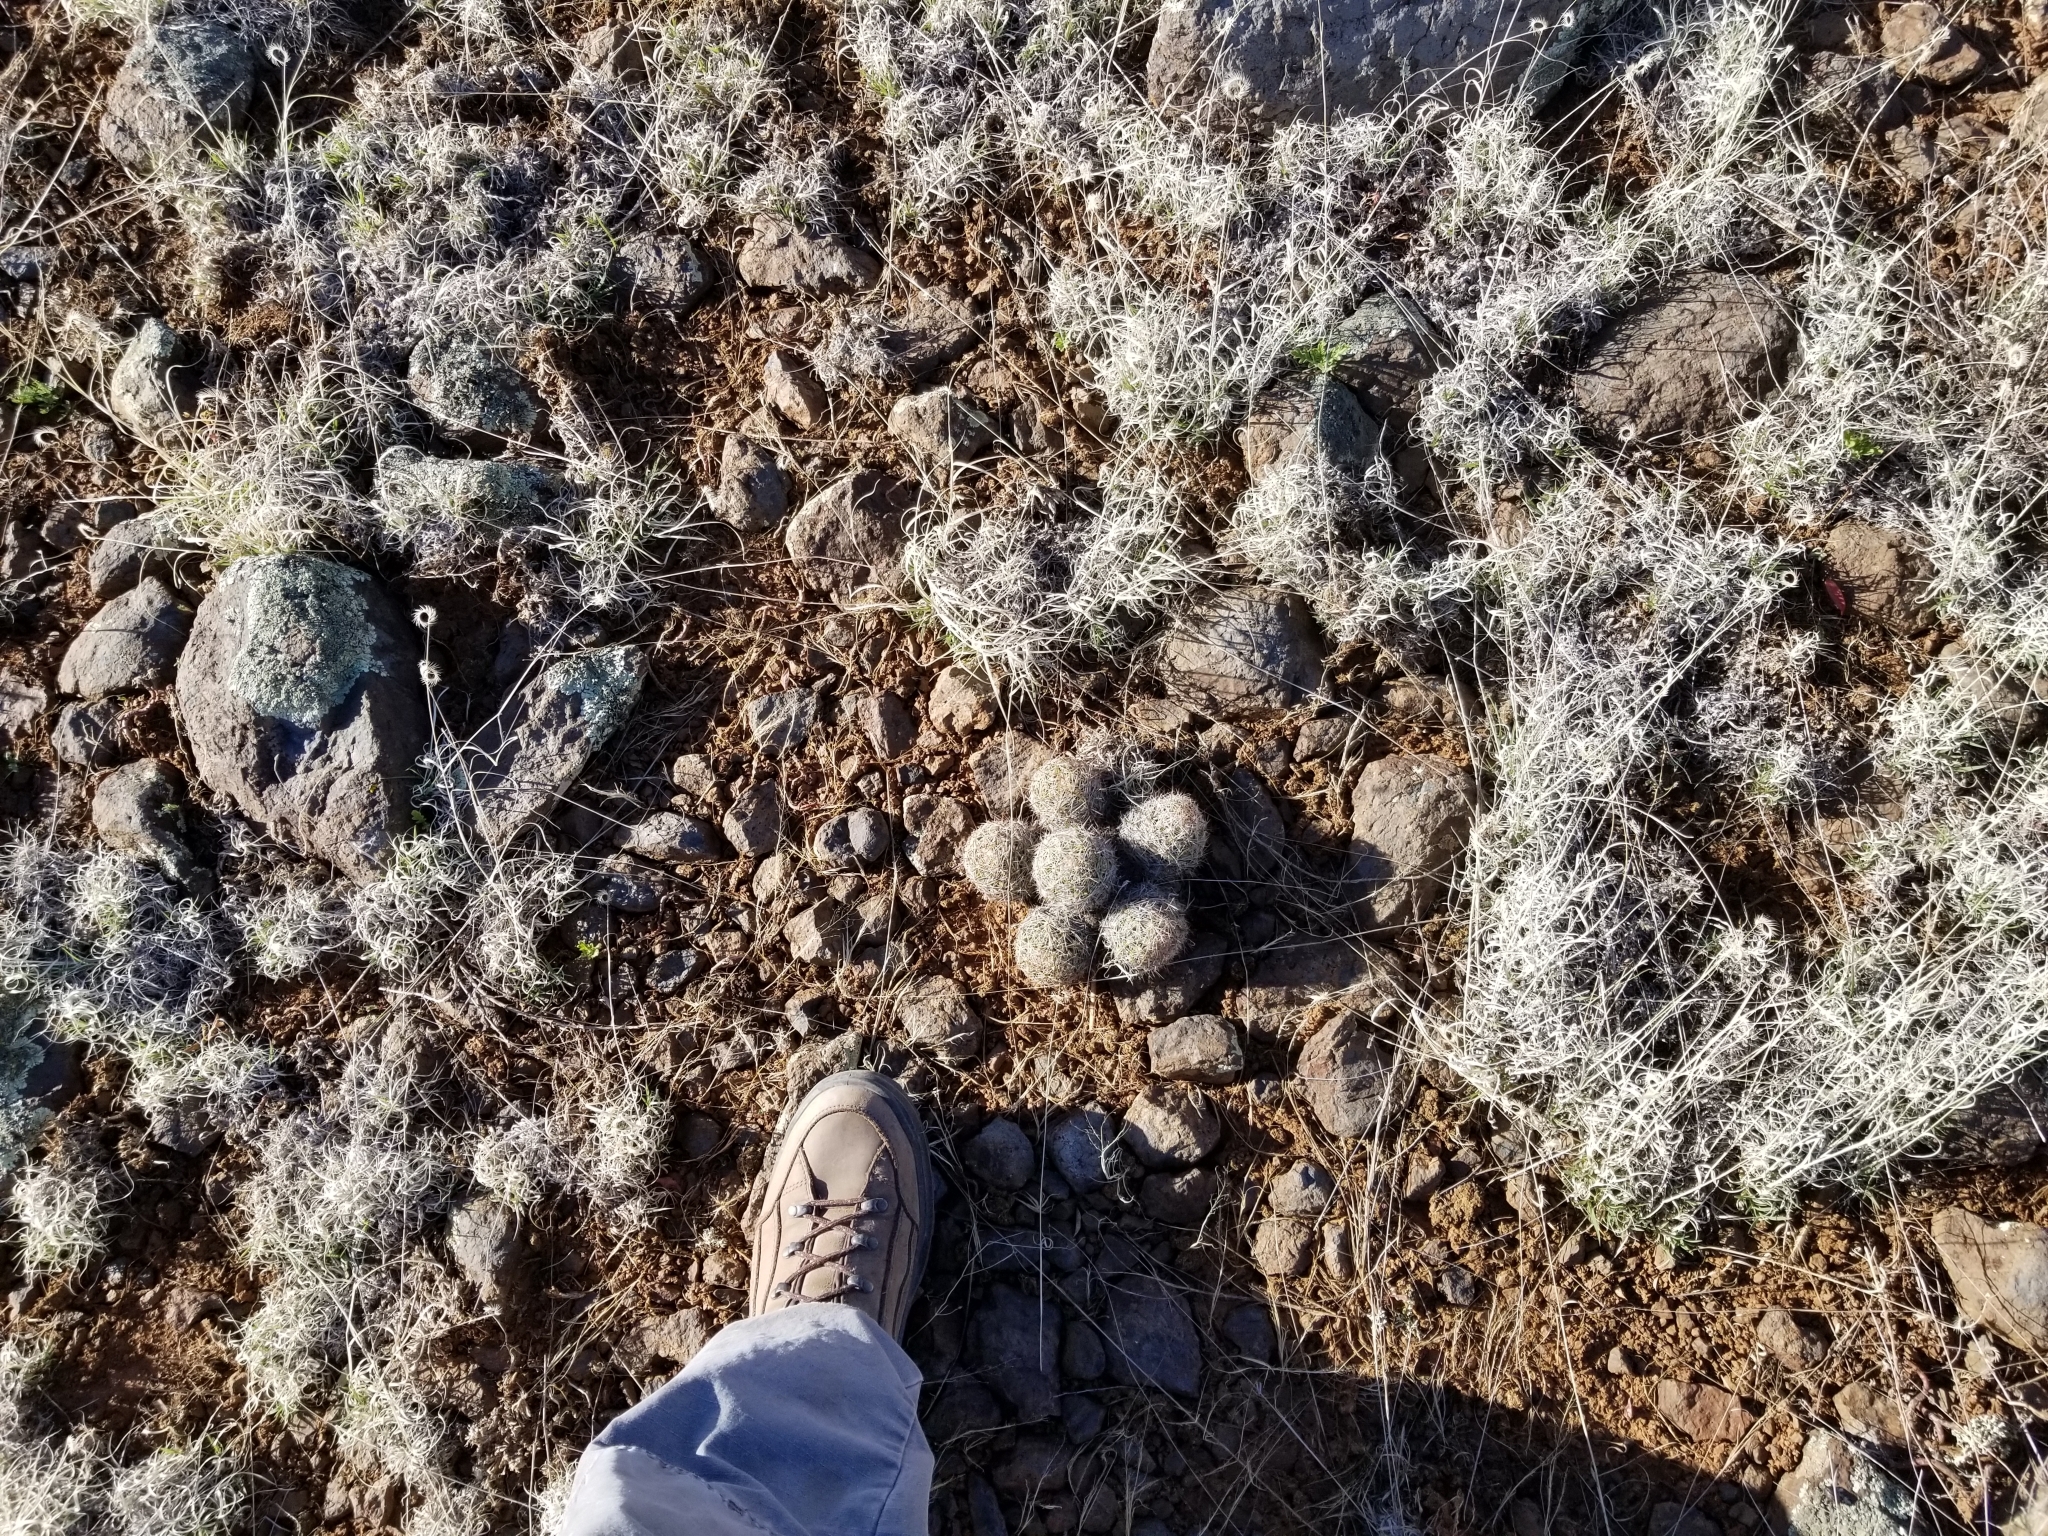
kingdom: Plantae
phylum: Tracheophyta
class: Magnoliopsida
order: Caryophyllales
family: Cactaceae
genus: Pelecyphora
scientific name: Pelecyphora vivipara
